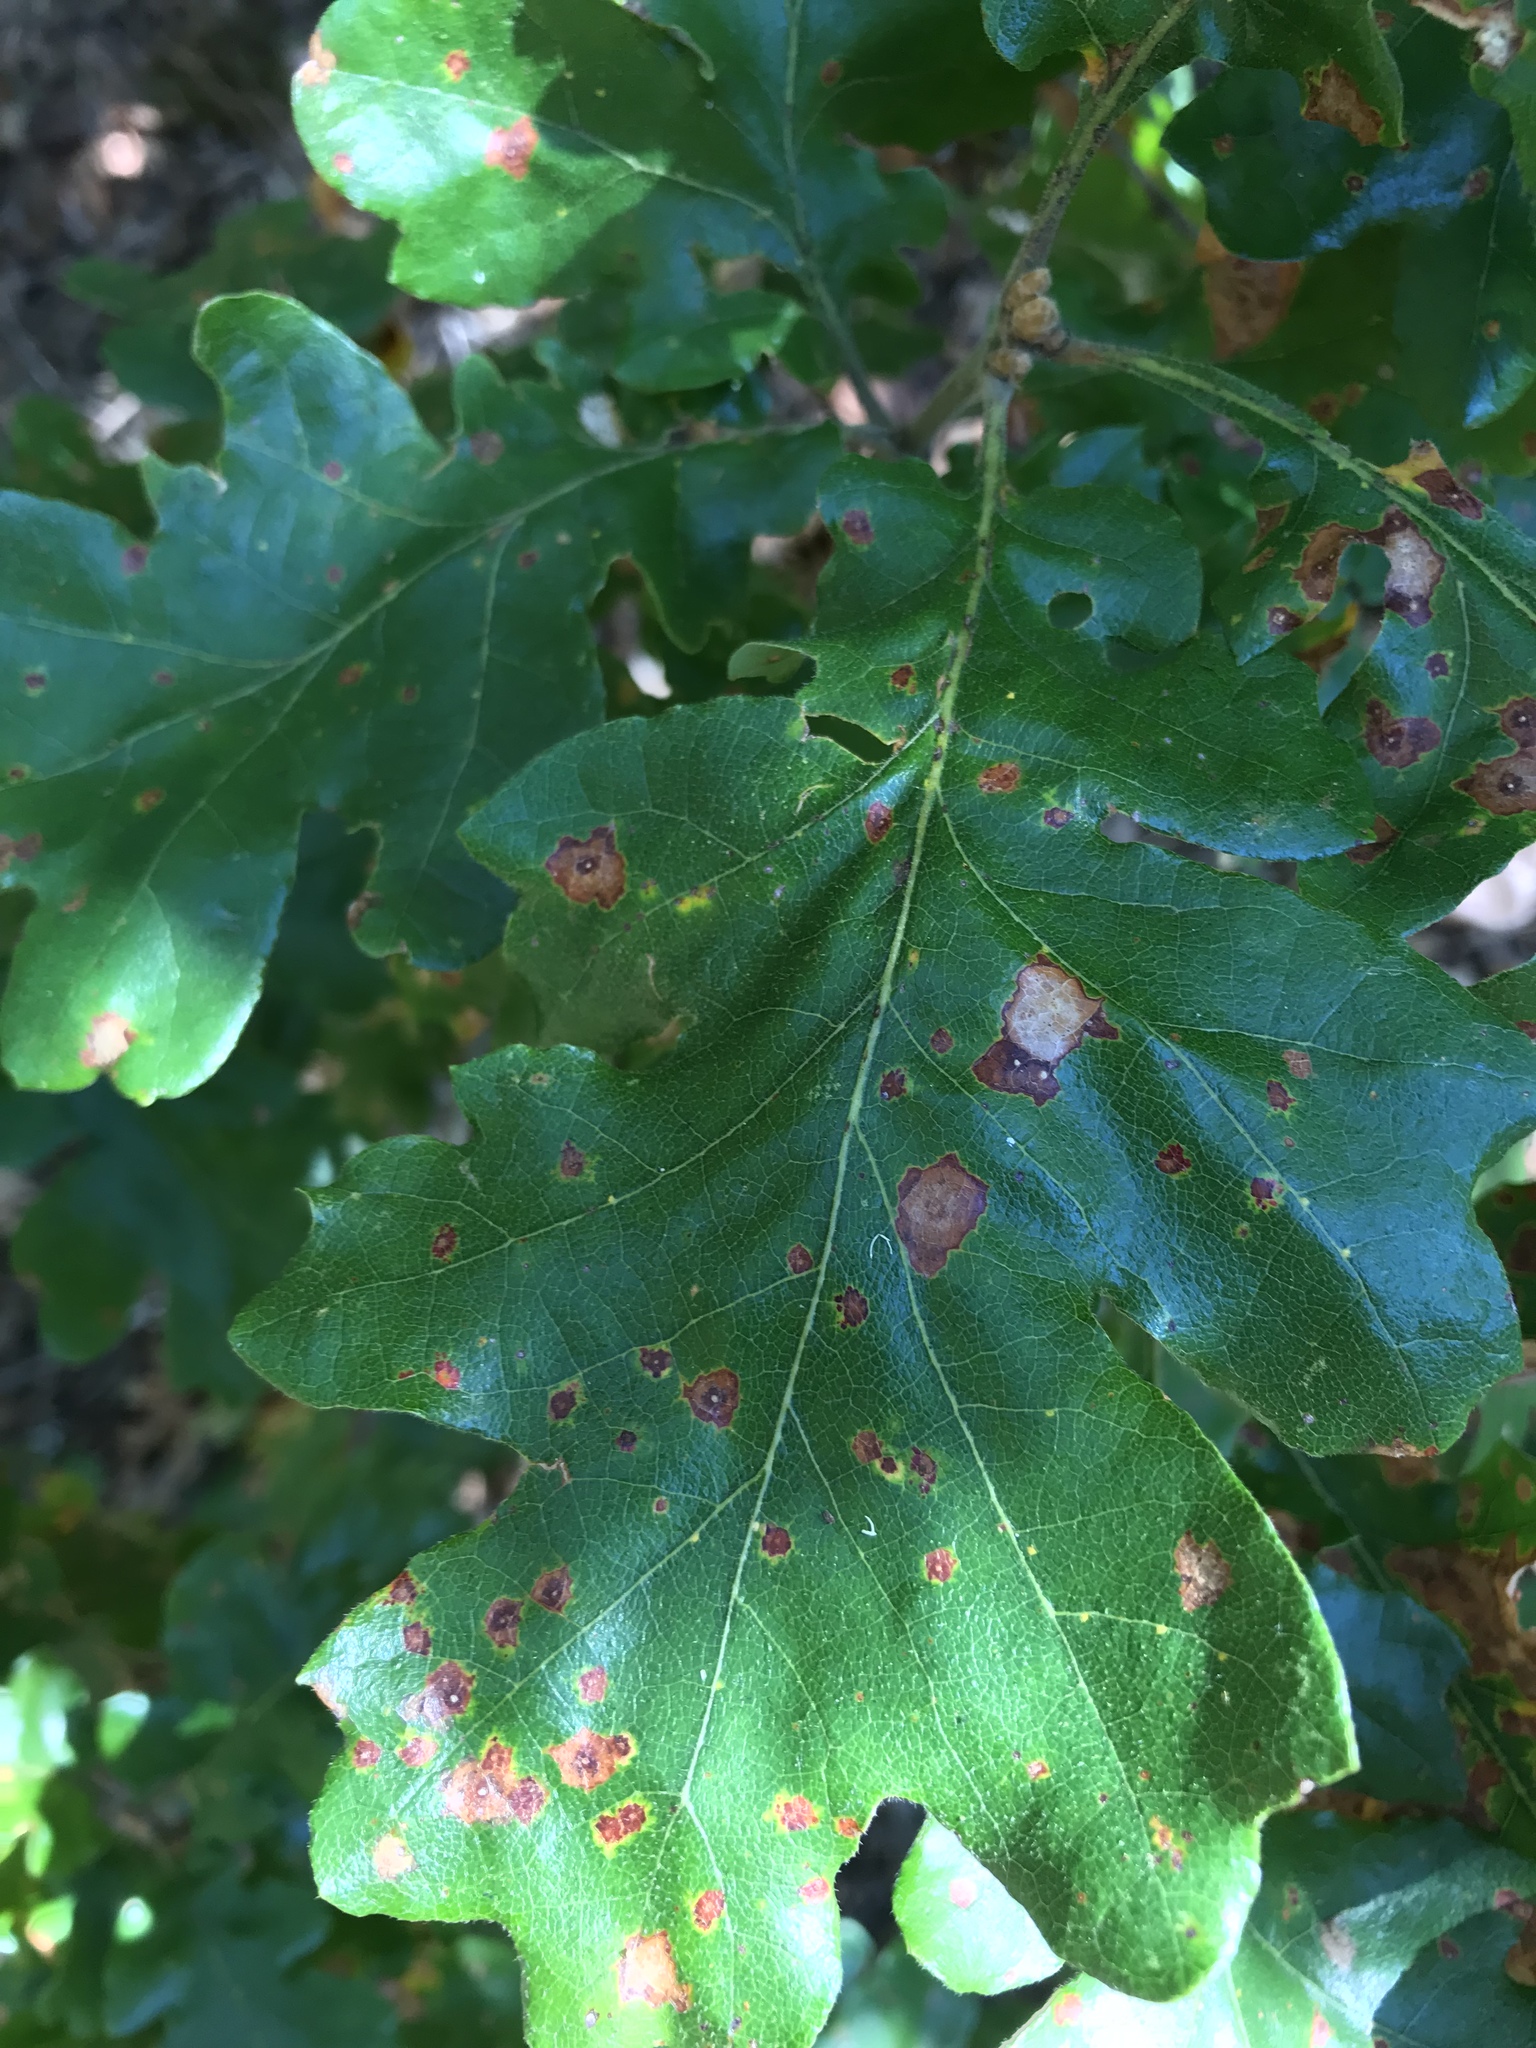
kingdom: Plantae
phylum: Tracheophyta
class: Magnoliopsida
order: Fagales
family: Fagaceae
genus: Quercus
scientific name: Quercus garryana
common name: Garry oak
